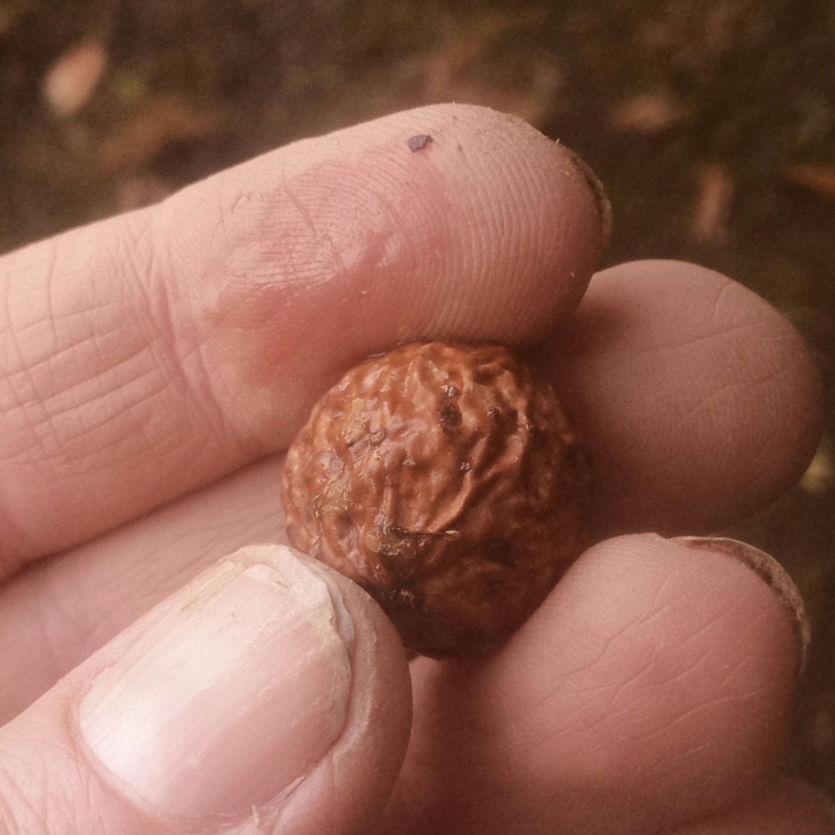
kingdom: Animalia
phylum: Arthropoda
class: Insecta
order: Hymenoptera
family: Cynipidae
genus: Amphibolips
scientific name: Amphibolips
